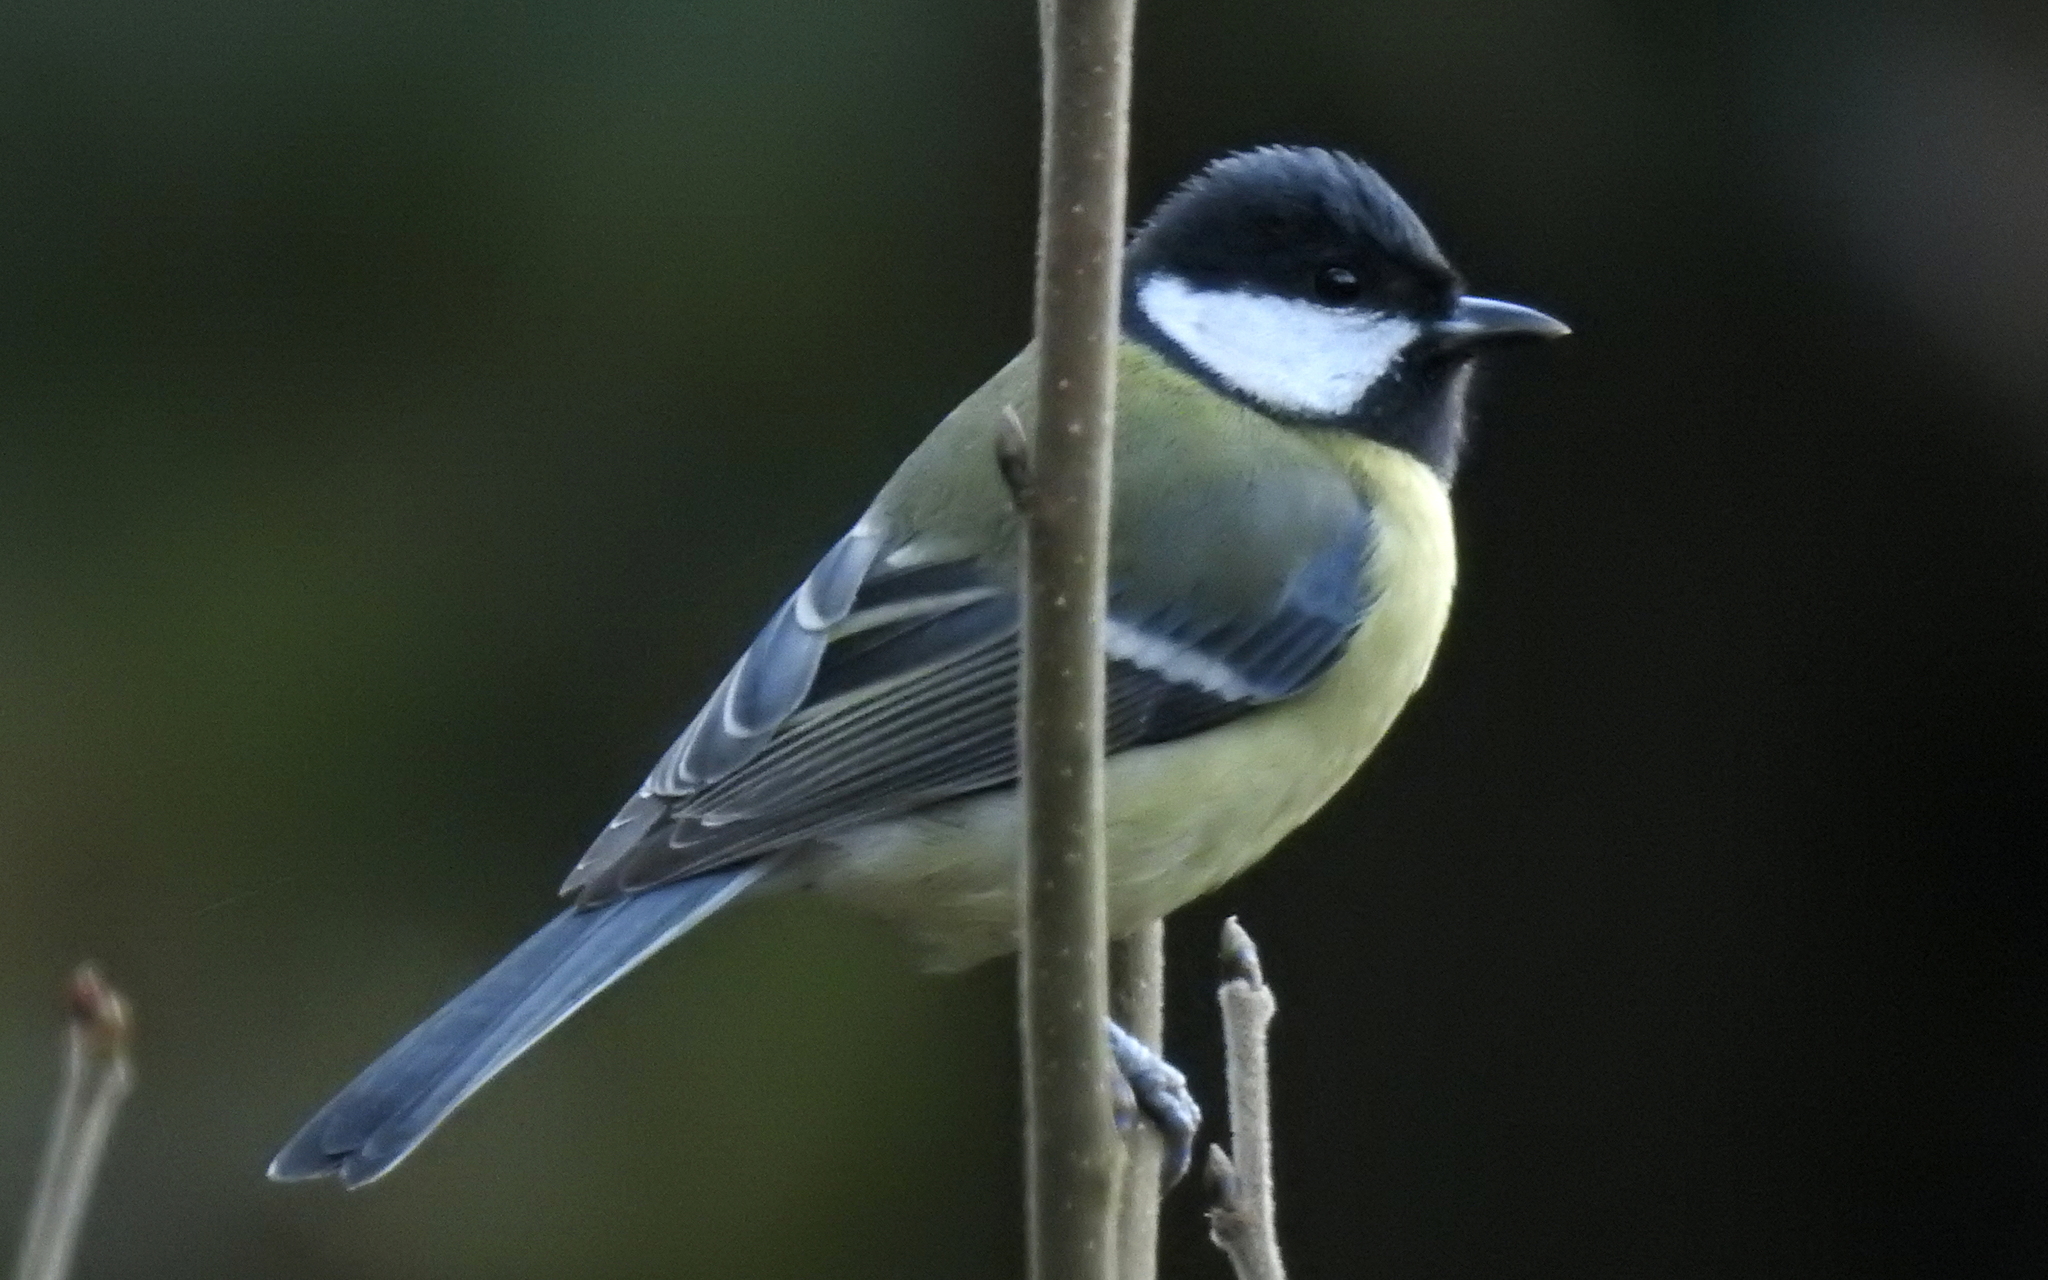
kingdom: Animalia
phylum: Chordata
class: Aves
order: Passeriformes
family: Paridae
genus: Parus
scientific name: Parus major
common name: Great tit
